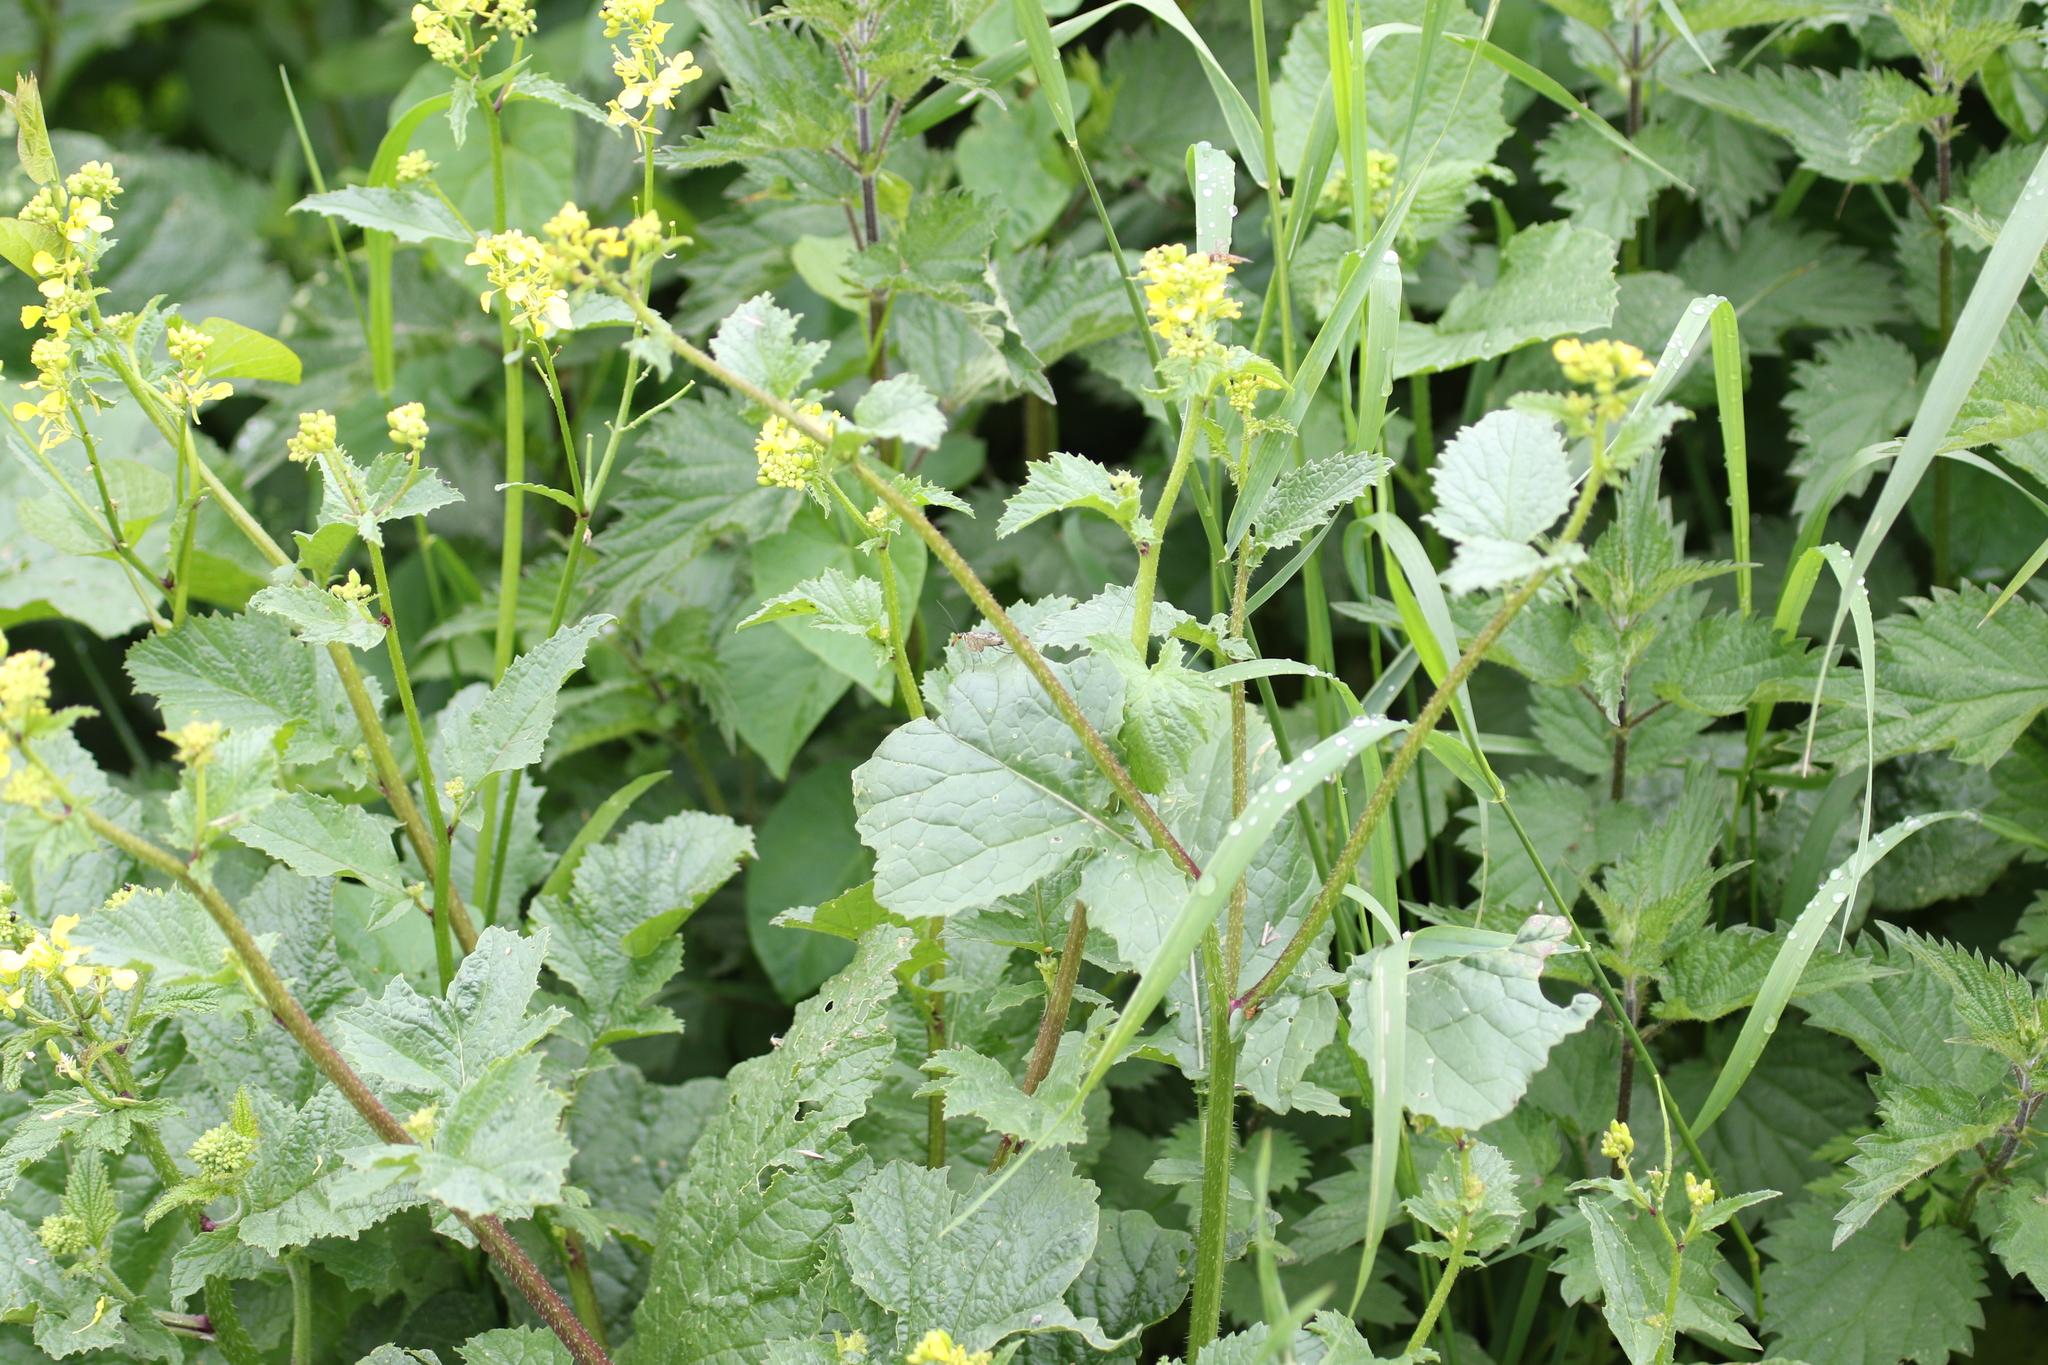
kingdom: Plantae
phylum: Tracheophyta
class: Magnoliopsida
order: Brassicales
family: Brassicaceae
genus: Sinapis
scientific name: Sinapis arvensis
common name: Charlock
